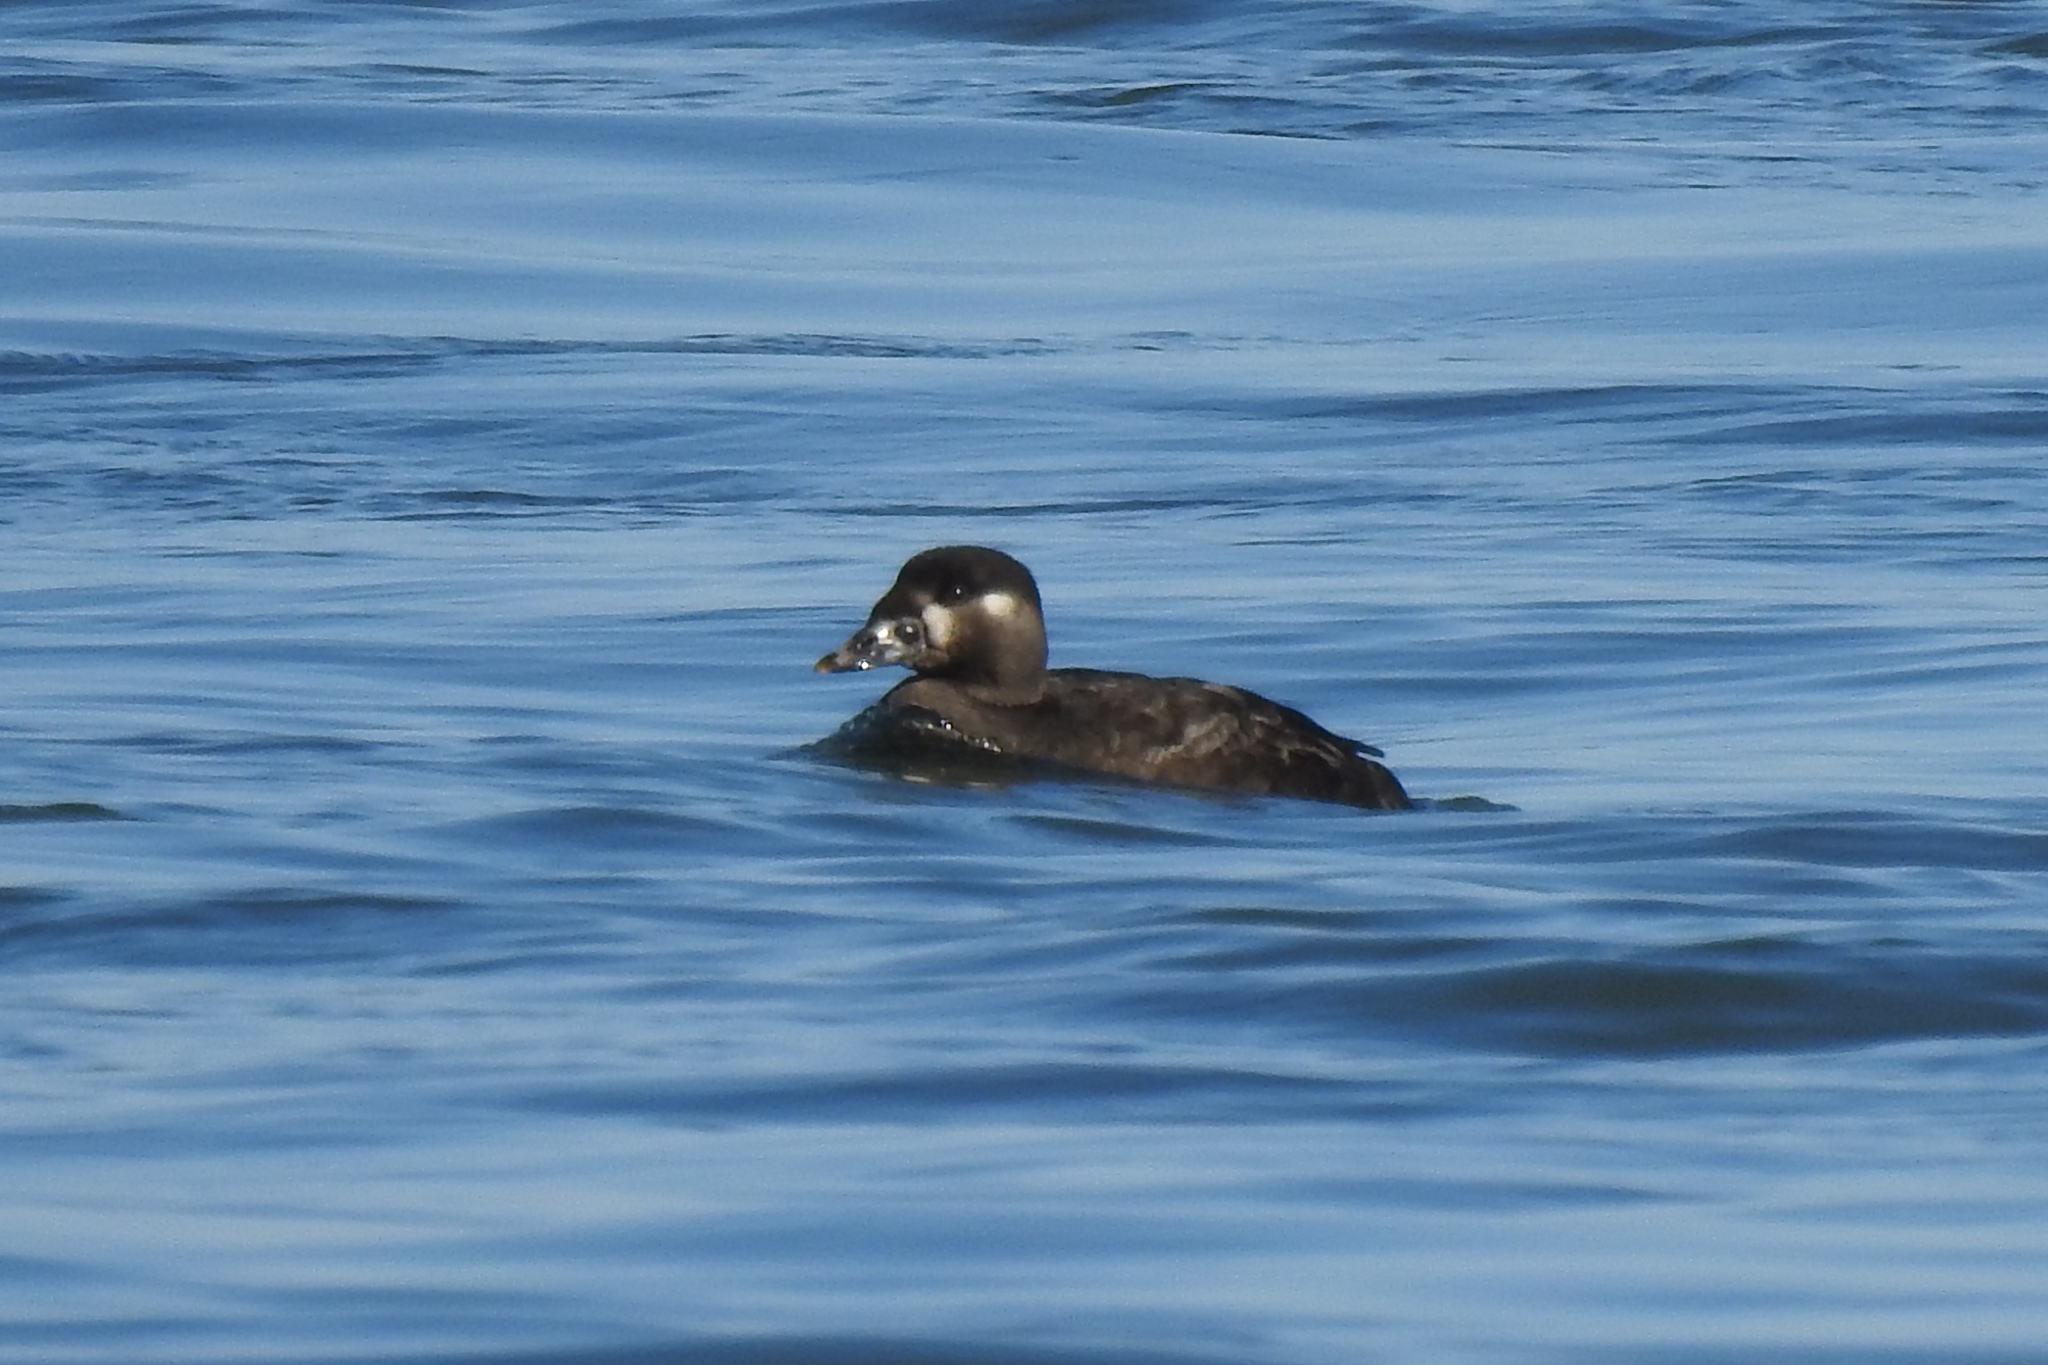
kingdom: Animalia
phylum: Chordata
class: Aves
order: Anseriformes
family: Anatidae
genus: Melanitta
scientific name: Melanitta perspicillata
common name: Surf scoter
